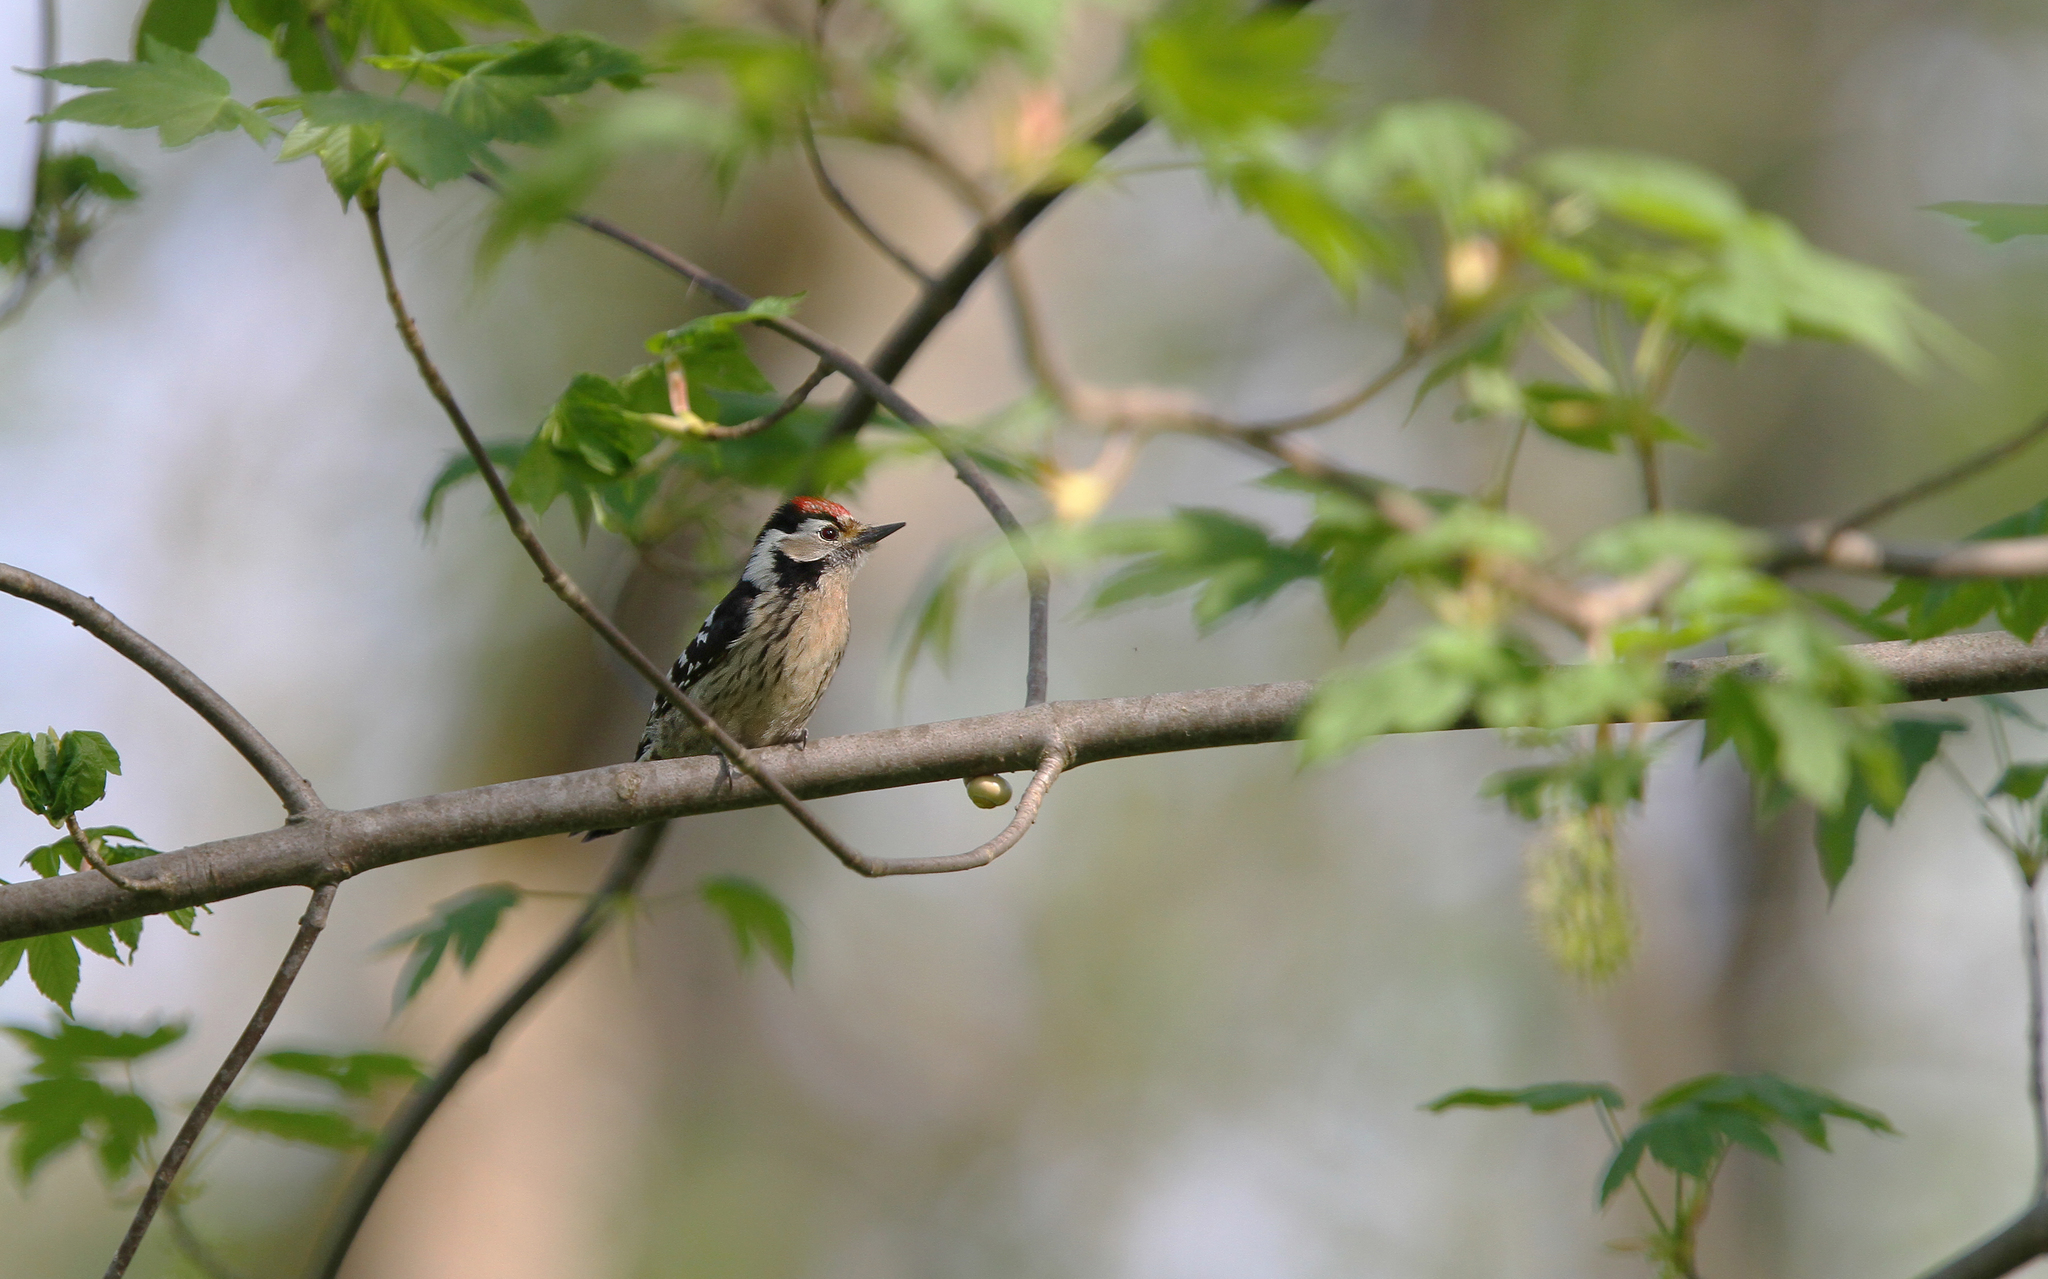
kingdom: Animalia
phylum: Chordata
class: Aves
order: Piciformes
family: Picidae
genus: Dryobates
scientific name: Dryobates minor
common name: Lesser spotted woodpecker
